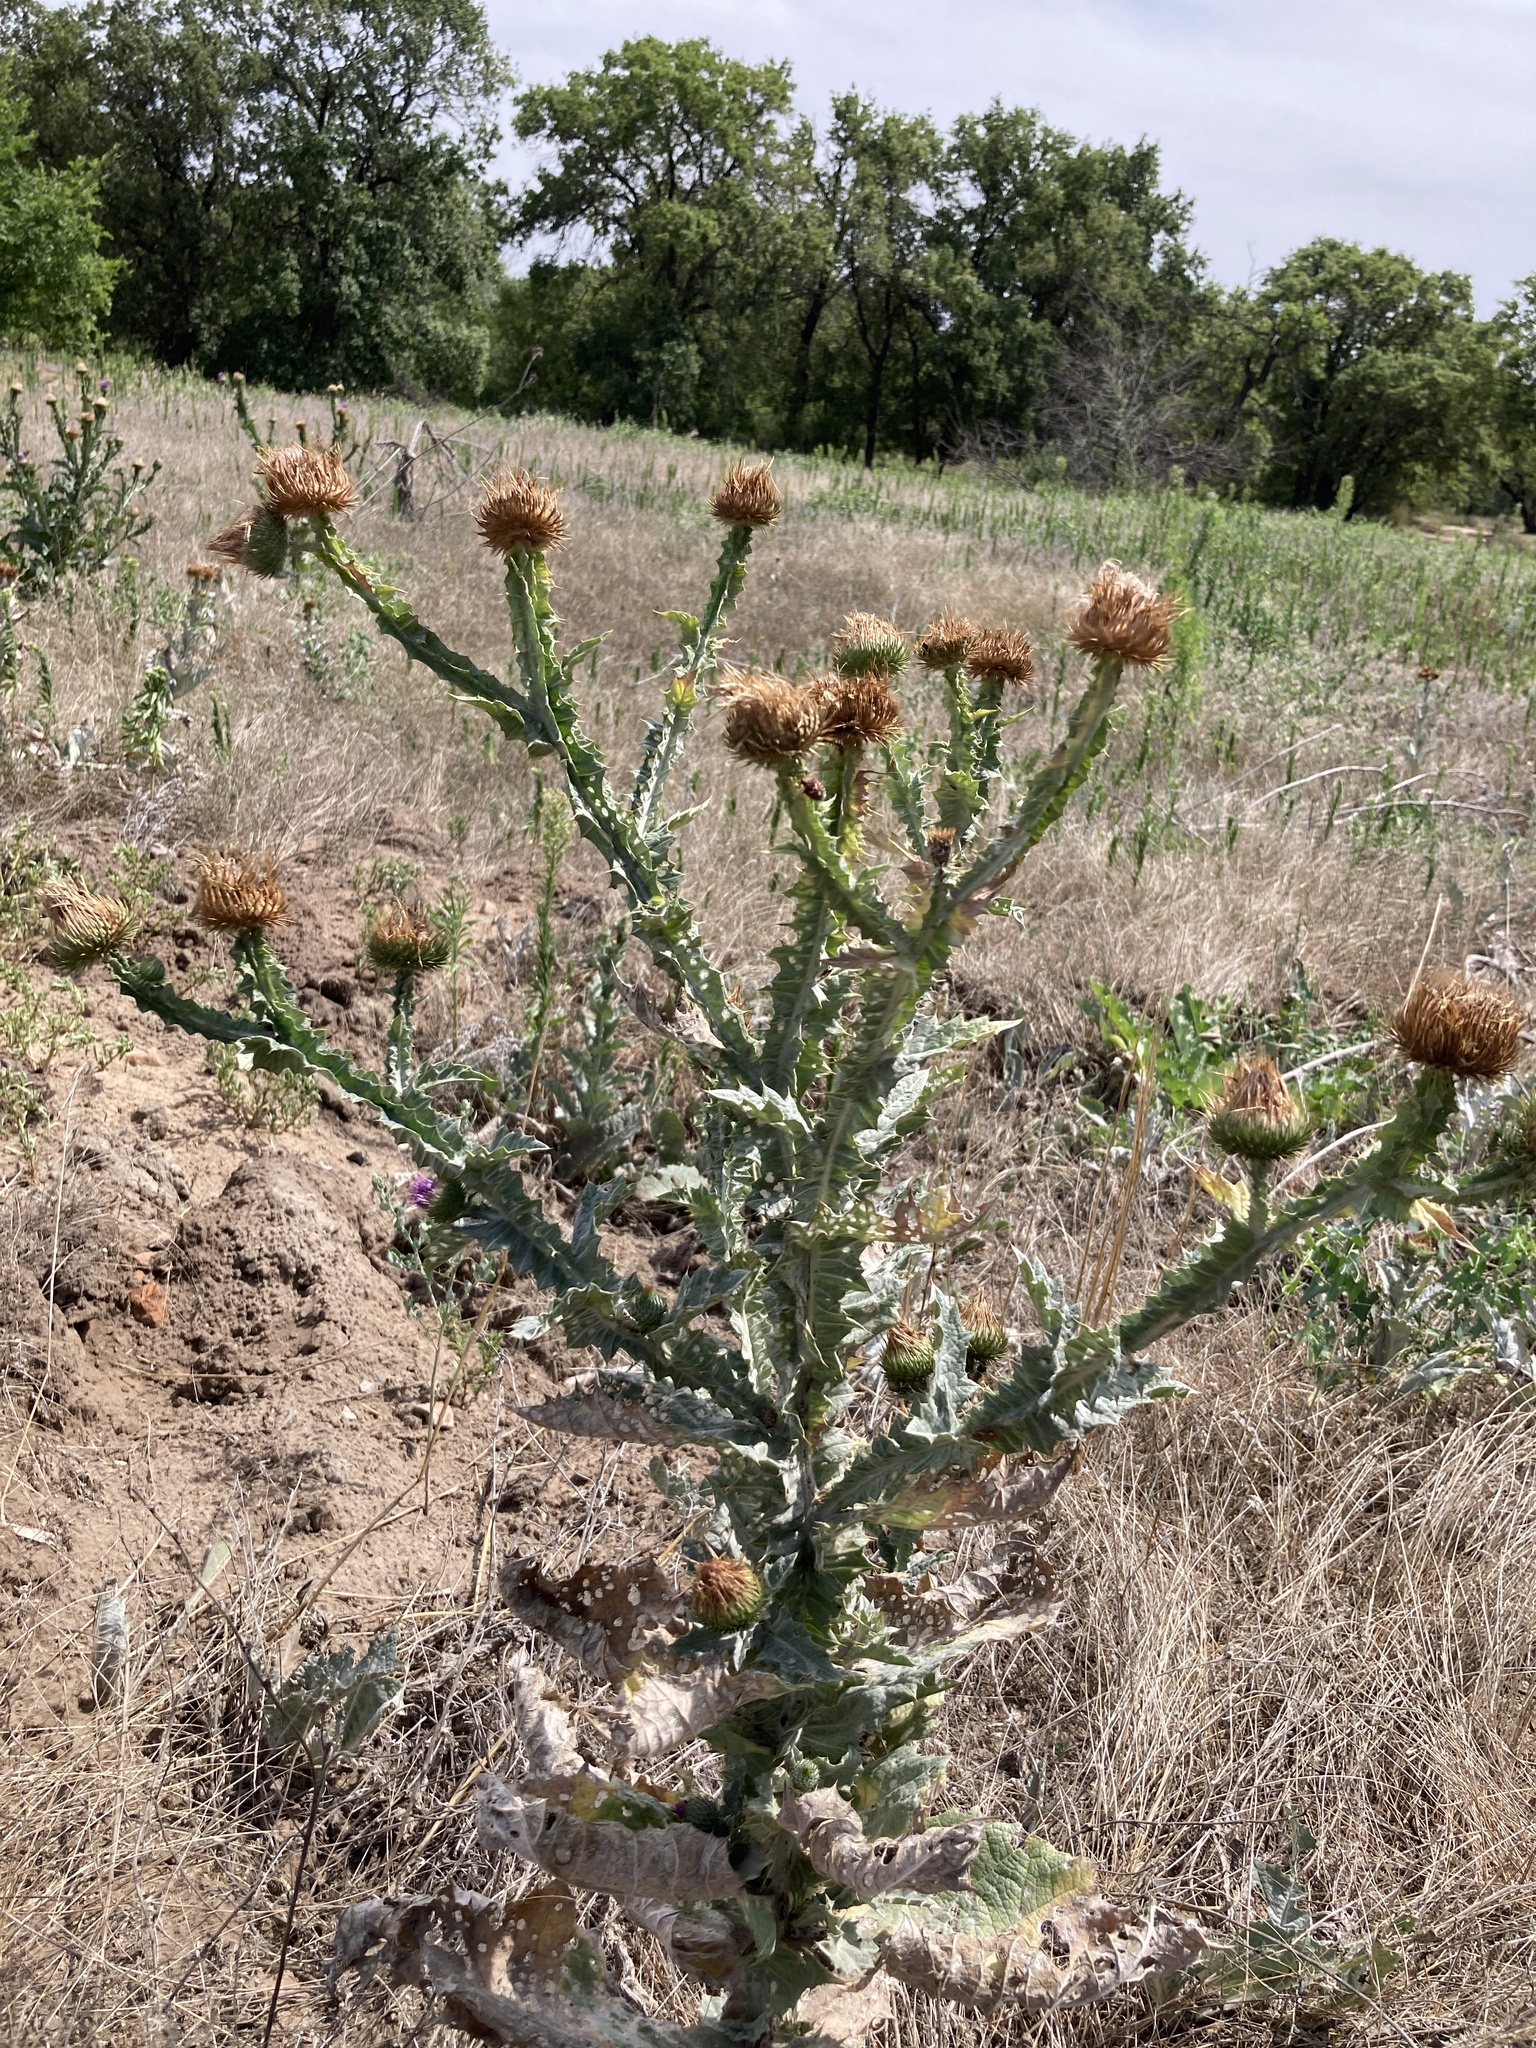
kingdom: Plantae
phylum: Tracheophyta
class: Magnoliopsida
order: Asterales
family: Asteraceae
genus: Onopordum
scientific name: Onopordum acanthium
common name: Scotch thistle
